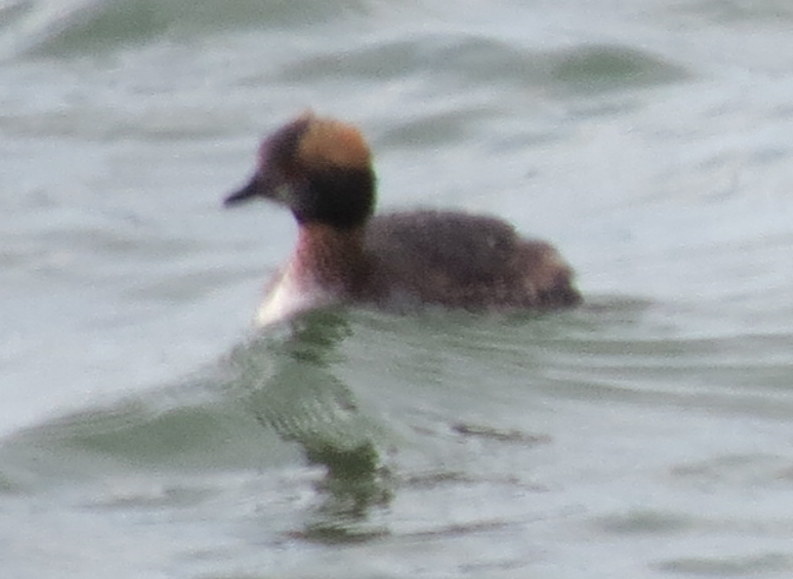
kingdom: Animalia
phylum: Chordata
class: Aves
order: Podicipediformes
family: Podicipedidae
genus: Podiceps
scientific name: Podiceps auritus
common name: Horned grebe
